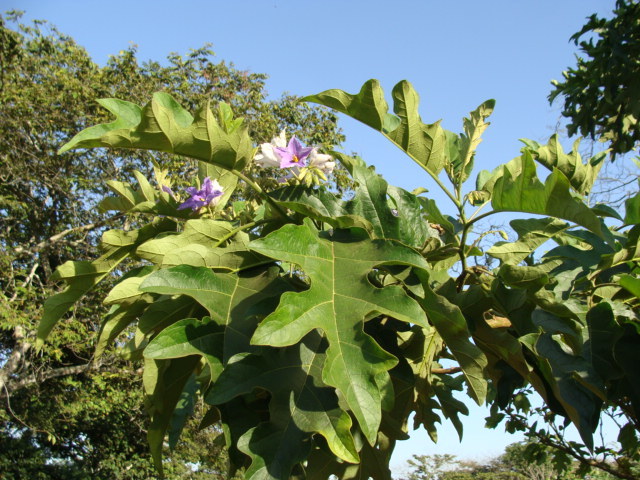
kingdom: Plantae
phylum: Tracheophyta
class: Magnoliopsida
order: Solanales
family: Solanaceae
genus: Solanum
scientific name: Solanum wrightii
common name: Brazilian potato-tree
